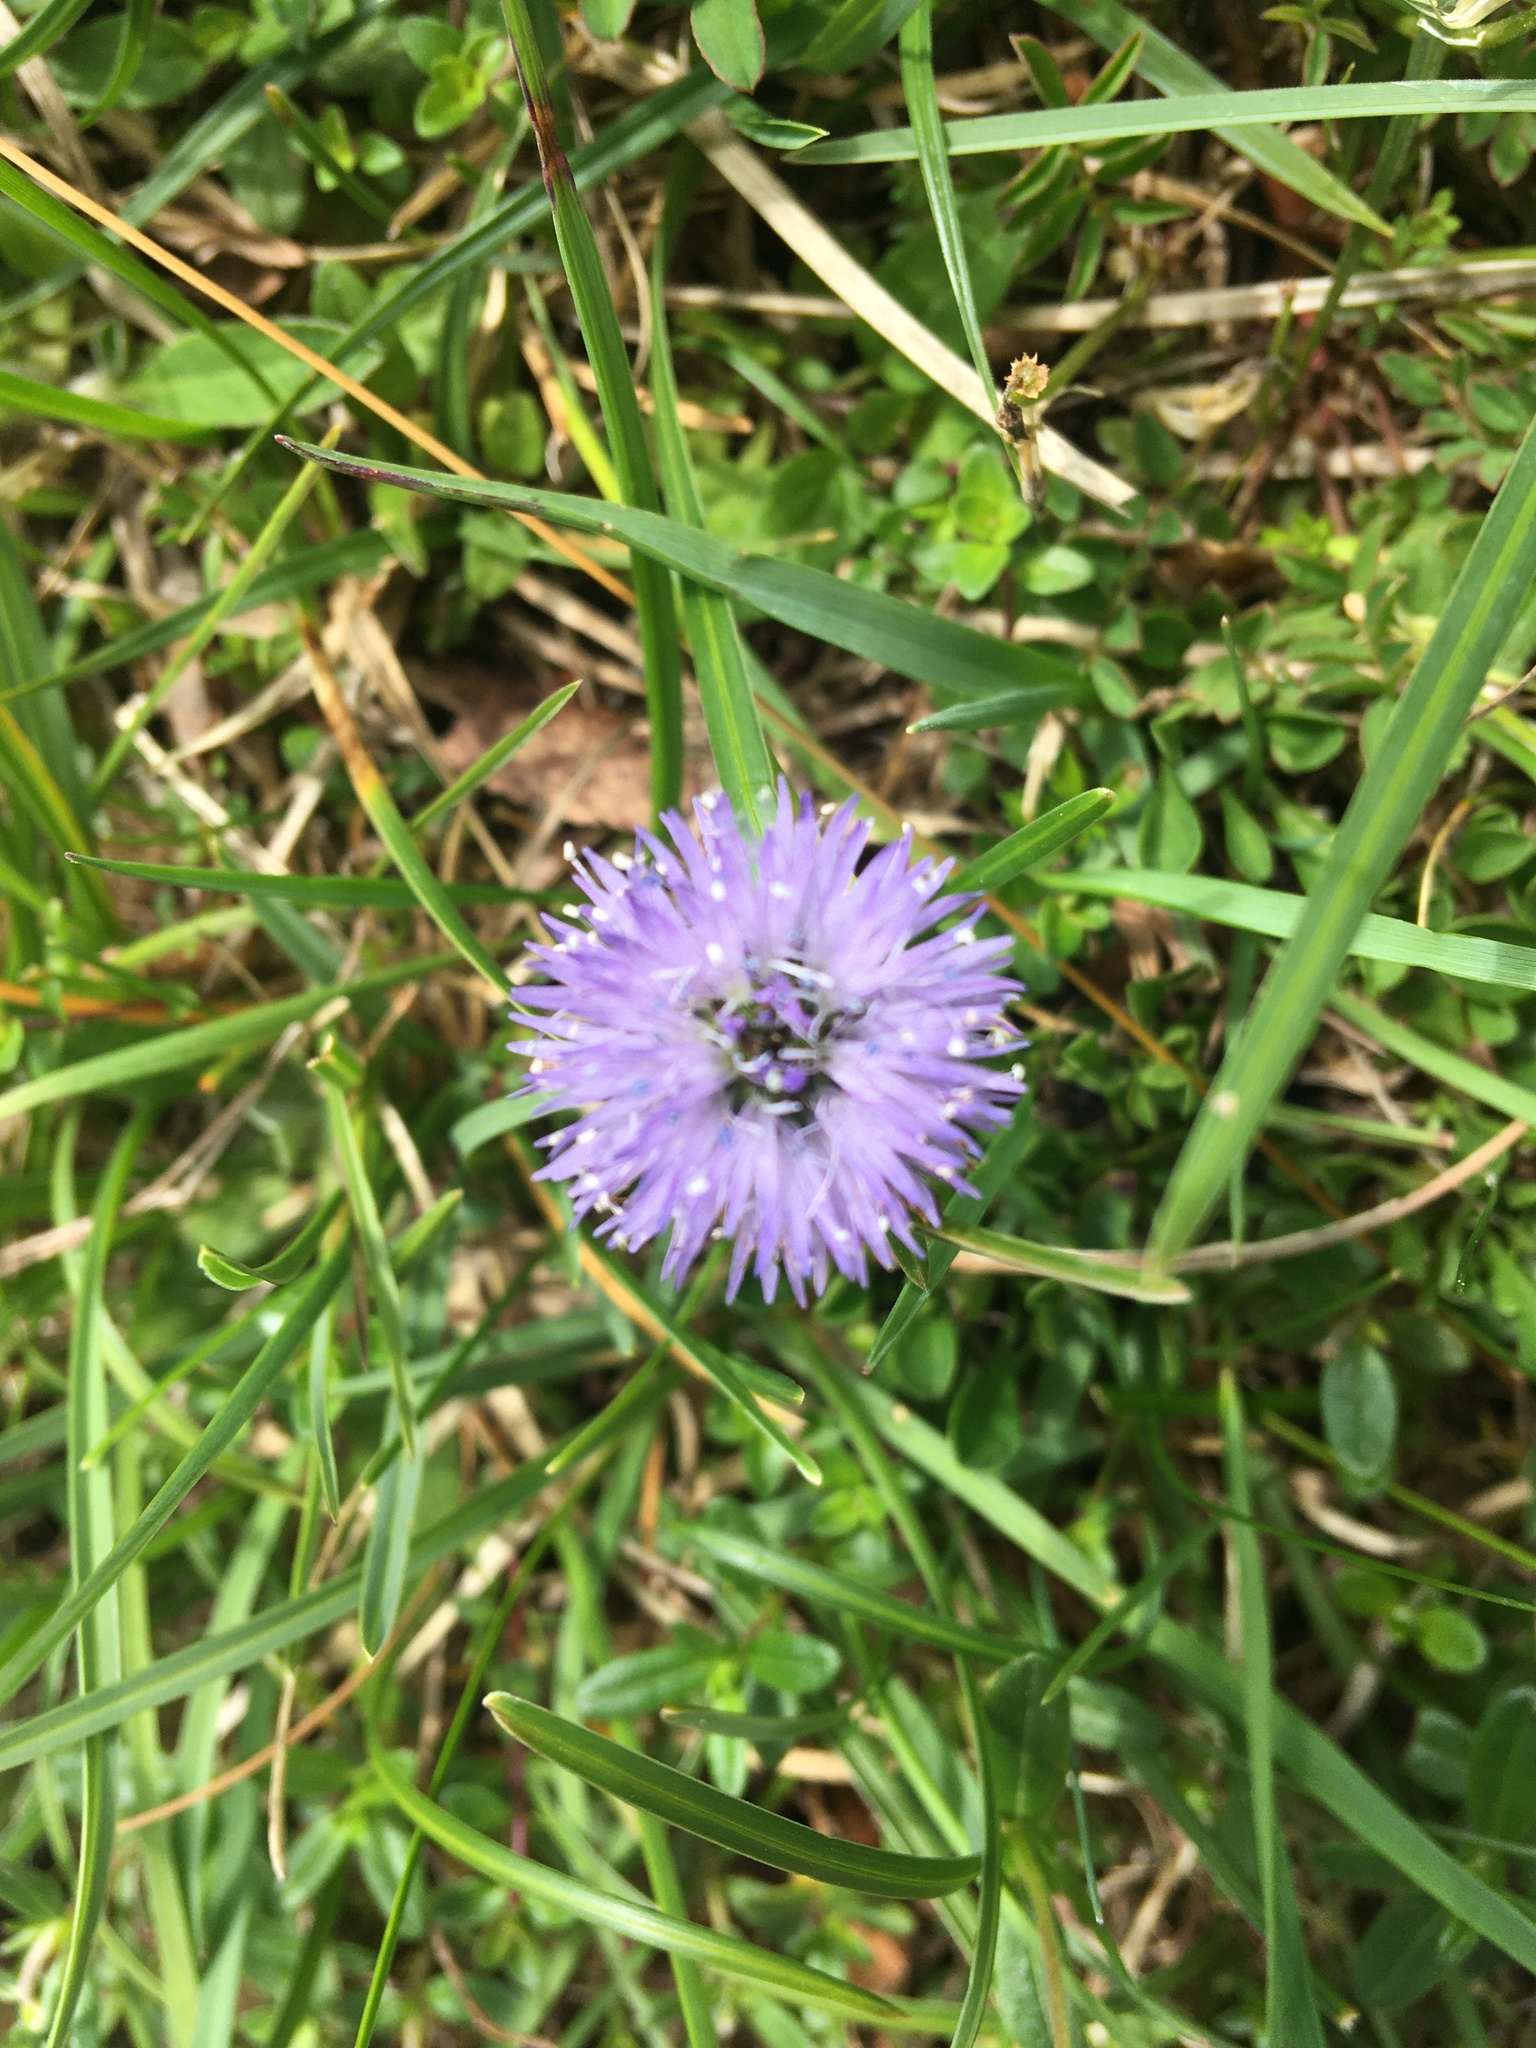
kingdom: Plantae
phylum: Tracheophyta
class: Magnoliopsida
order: Lamiales
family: Plantaginaceae
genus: Globularia
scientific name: Globularia cordifolia
